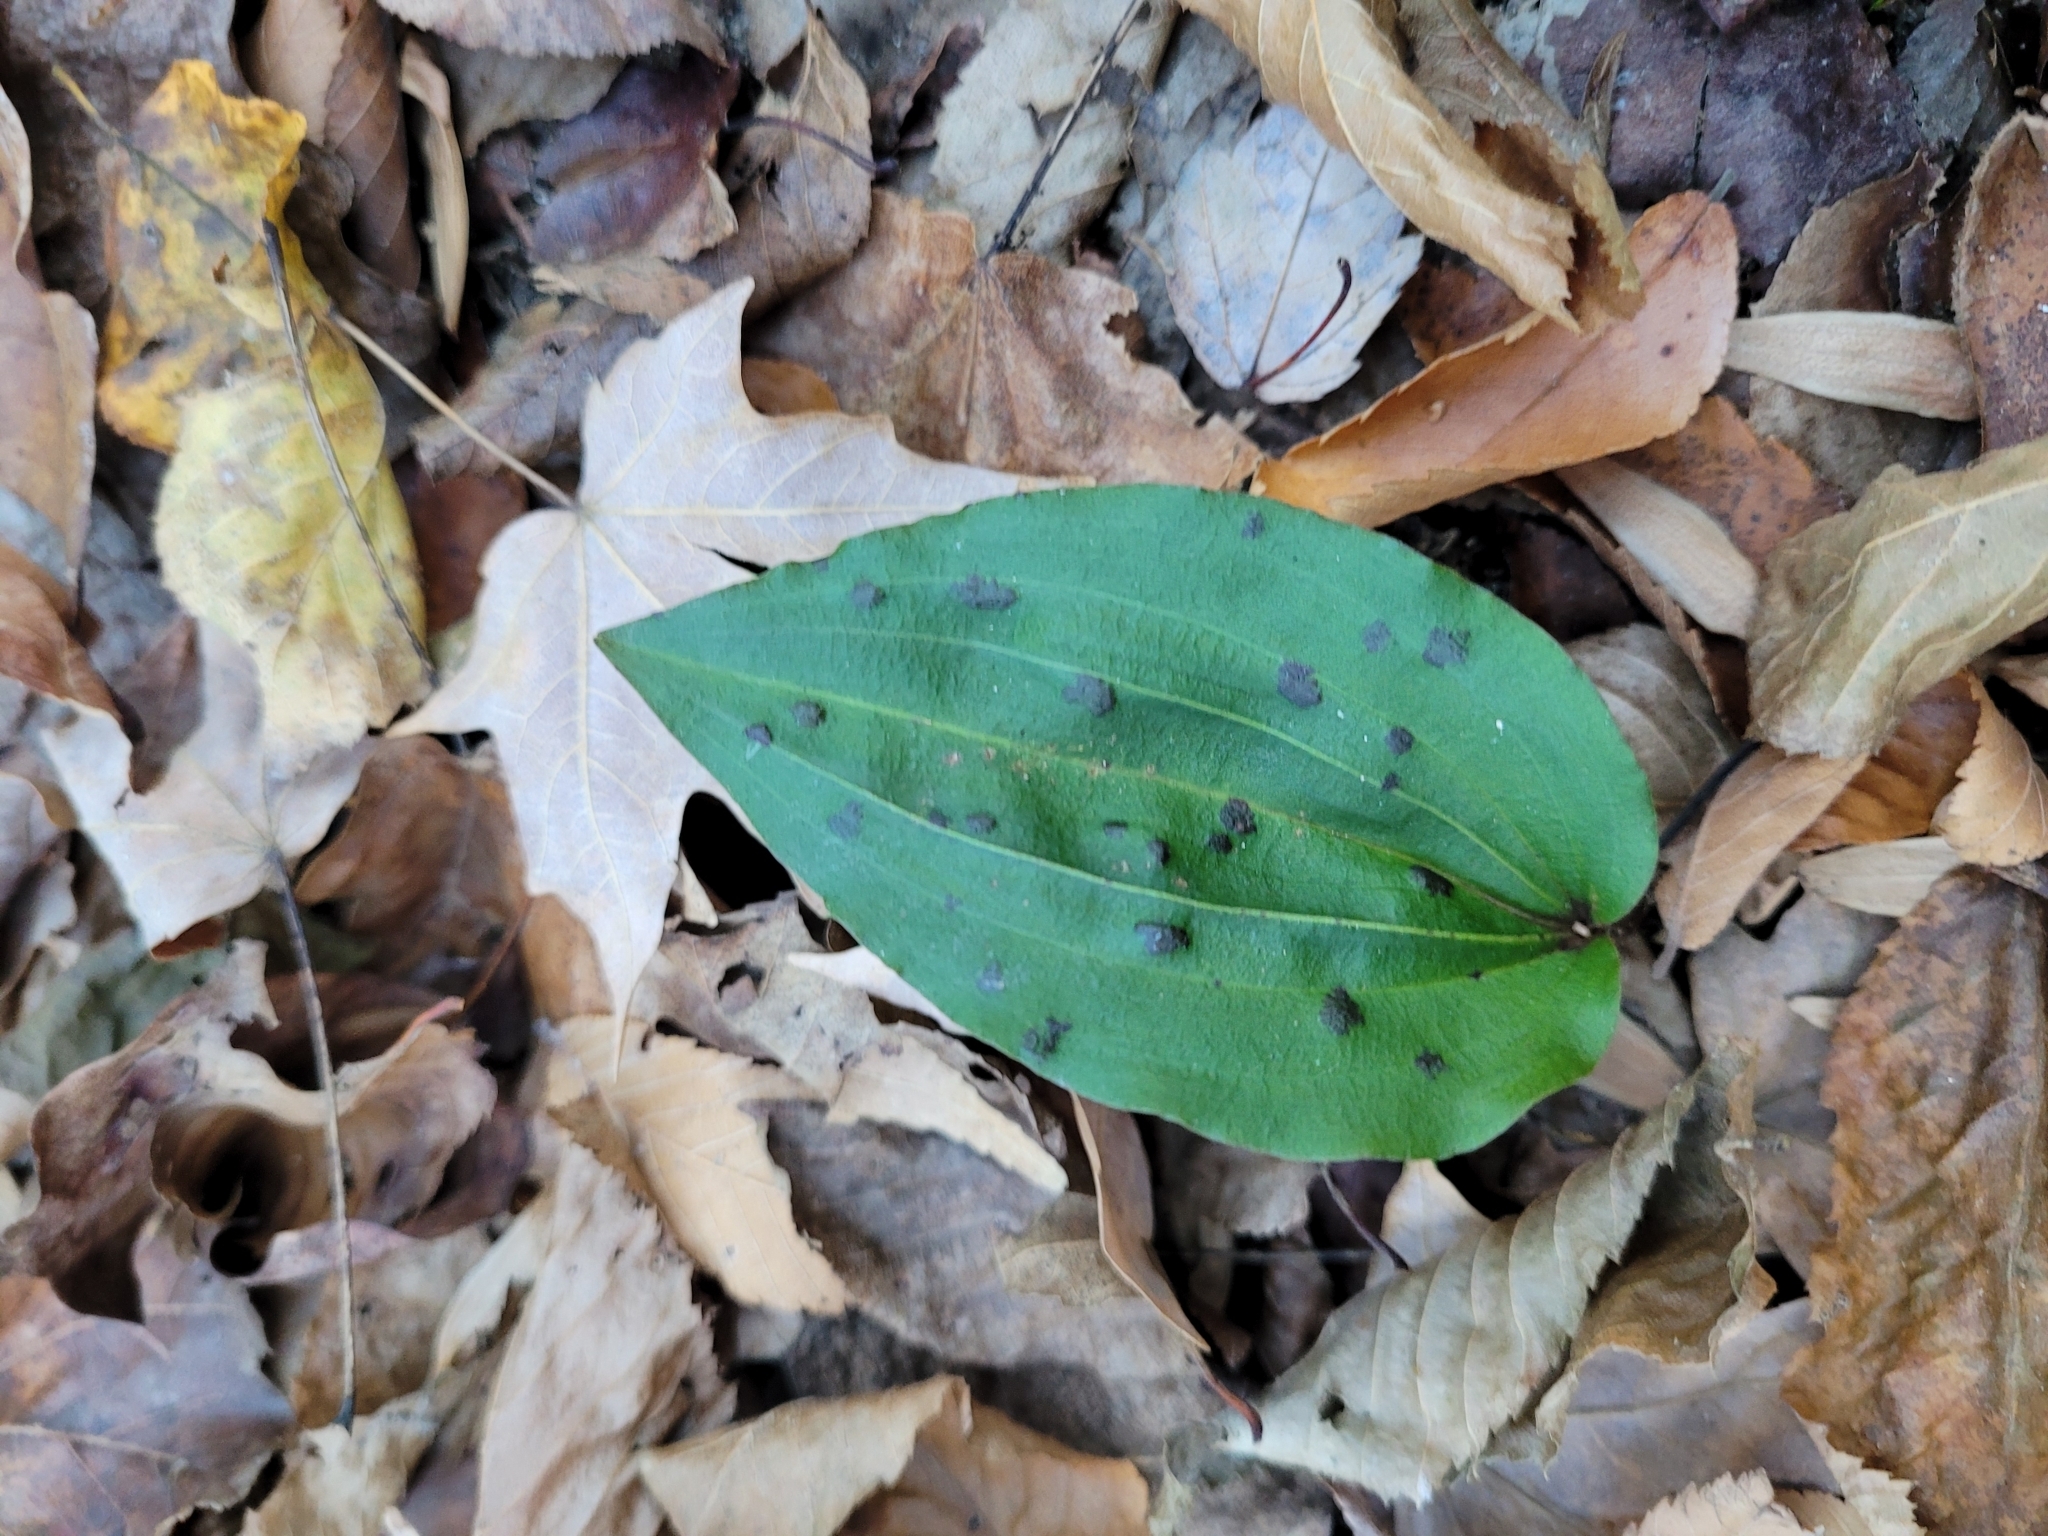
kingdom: Plantae
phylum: Tracheophyta
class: Liliopsida
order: Asparagales
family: Orchidaceae
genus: Tipularia
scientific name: Tipularia discolor
